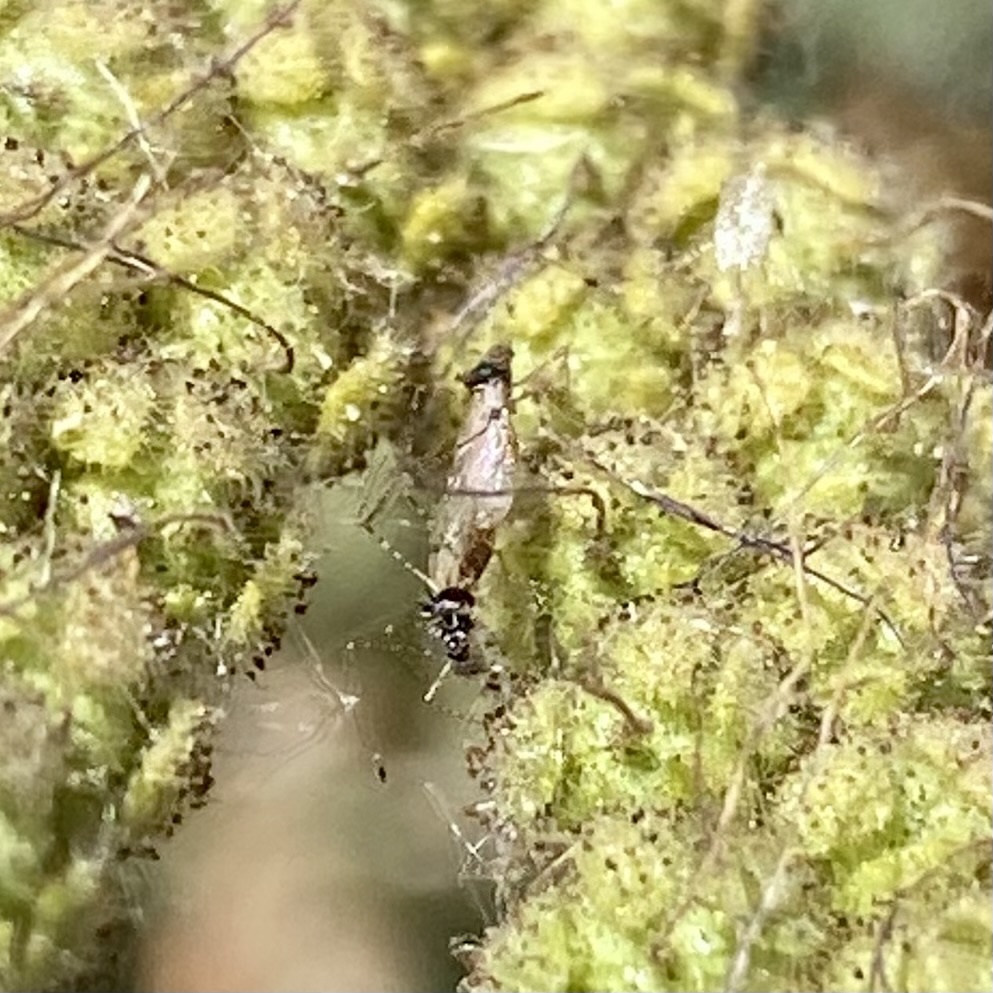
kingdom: Animalia
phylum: Arthropoda
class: Insecta
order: Hemiptera
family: Berytidae
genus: Pronotacantha
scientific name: Pronotacantha annulata
